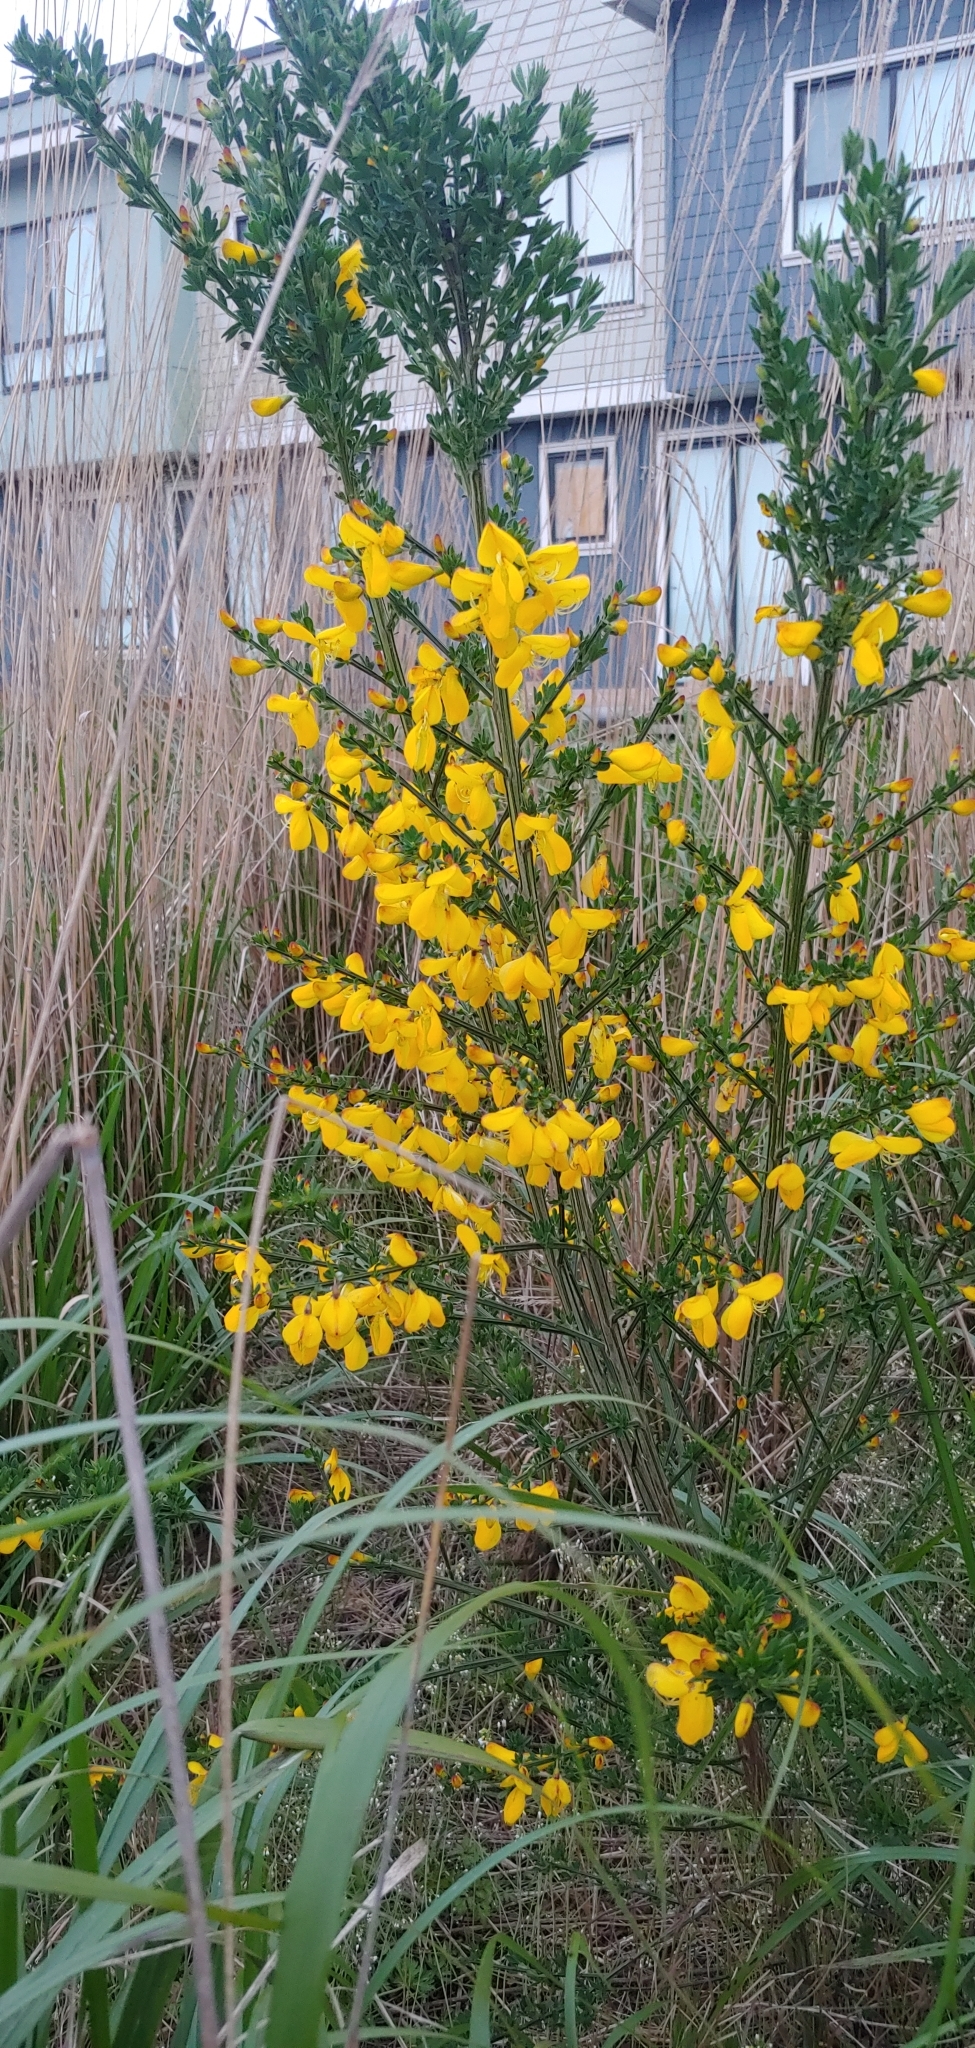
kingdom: Plantae
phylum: Tracheophyta
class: Magnoliopsida
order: Fabales
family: Fabaceae
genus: Cytisus
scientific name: Cytisus scoparius
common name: Scotch broom
